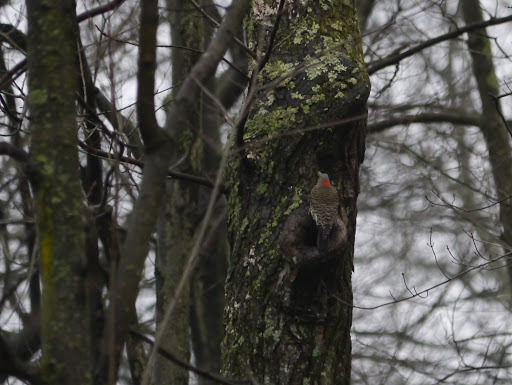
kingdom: Animalia
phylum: Chordata
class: Aves
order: Piciformes
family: Picidae
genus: Colaptes
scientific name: Colaptes auratus
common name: Northern flicker
